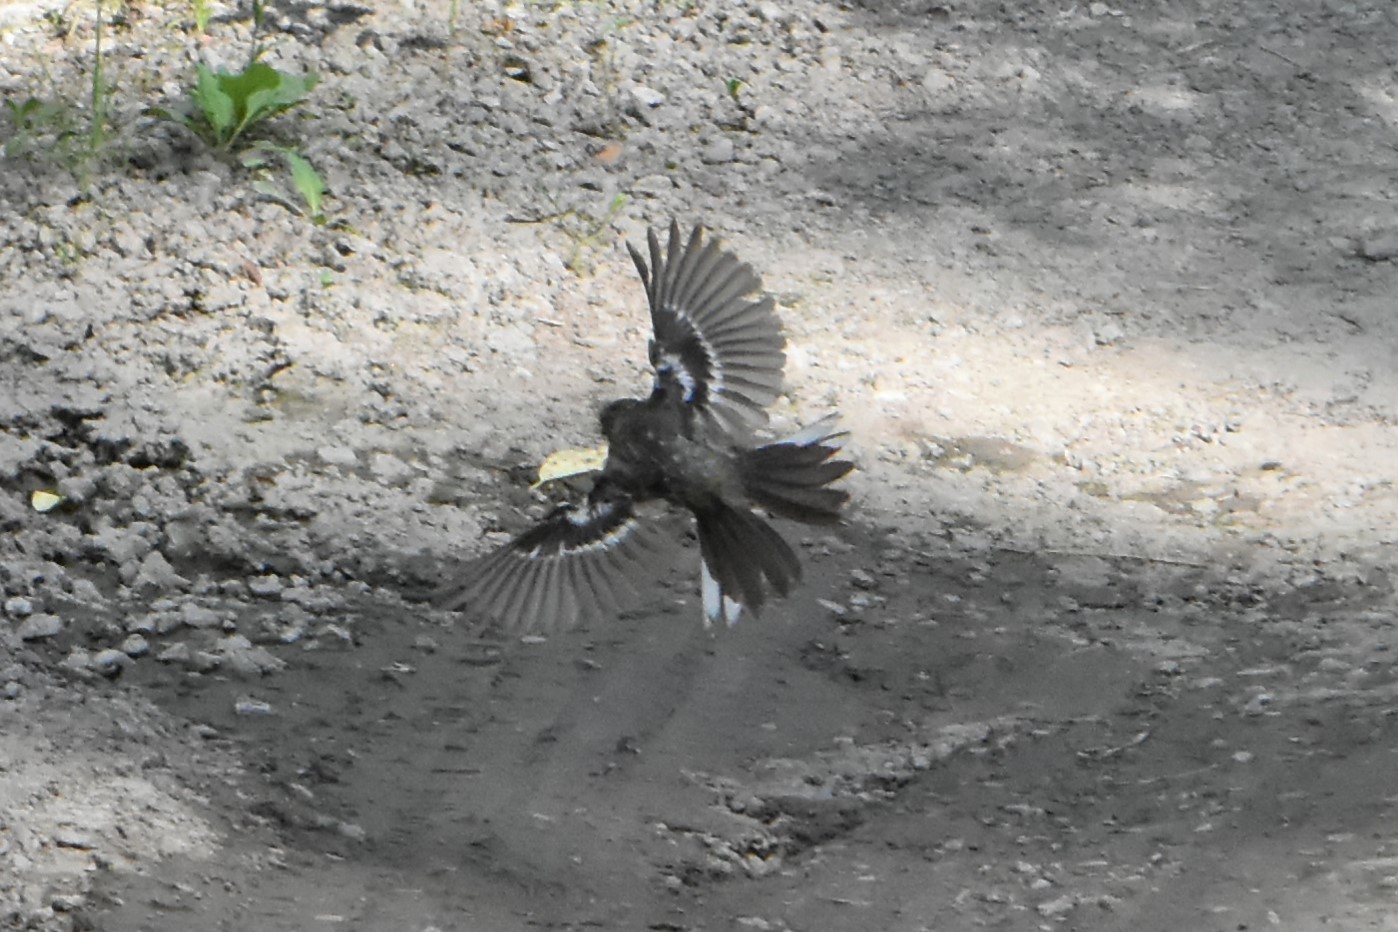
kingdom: Animalia
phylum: Chordata
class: Aves
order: Passeriformes
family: Fringillidae
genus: Fringilla
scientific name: Fringilla coelebs
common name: Common chaffinch
